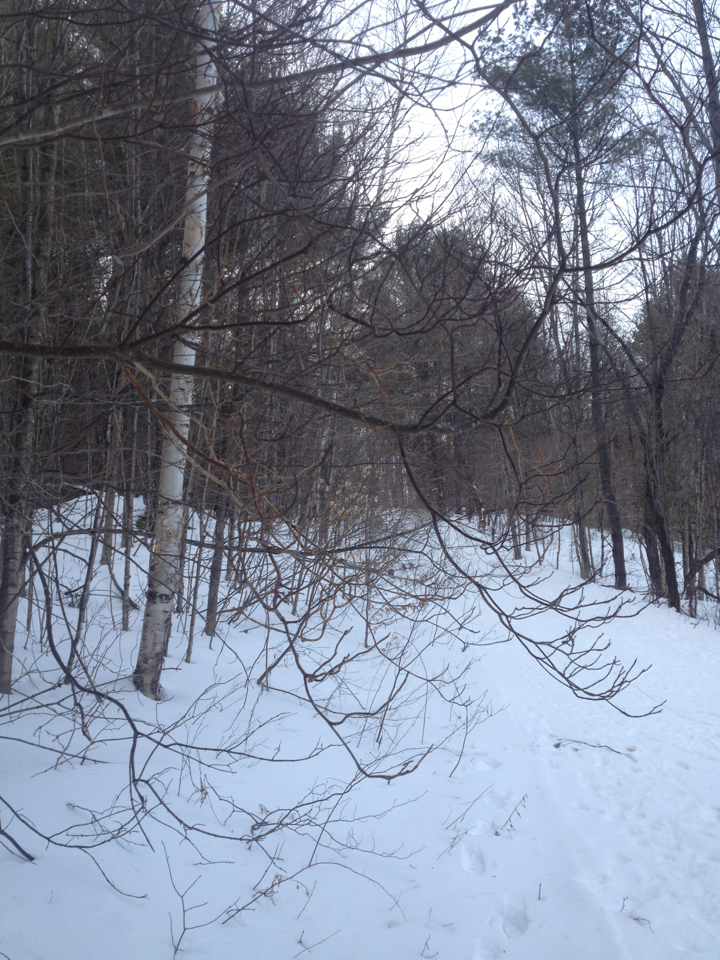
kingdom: Plantae
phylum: Tracheophyta
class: Magnoliopsida
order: Cornales
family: Cornaceae
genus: Cornus
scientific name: Cornus alternifolia
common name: Pagoda dogwood
